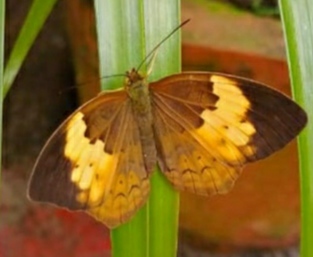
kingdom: Animalia
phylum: Arthropoda
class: Insecta
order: Lepidoptera
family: Nymphalidae
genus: Cupha
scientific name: Cupha erymanthis
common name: Rustic
